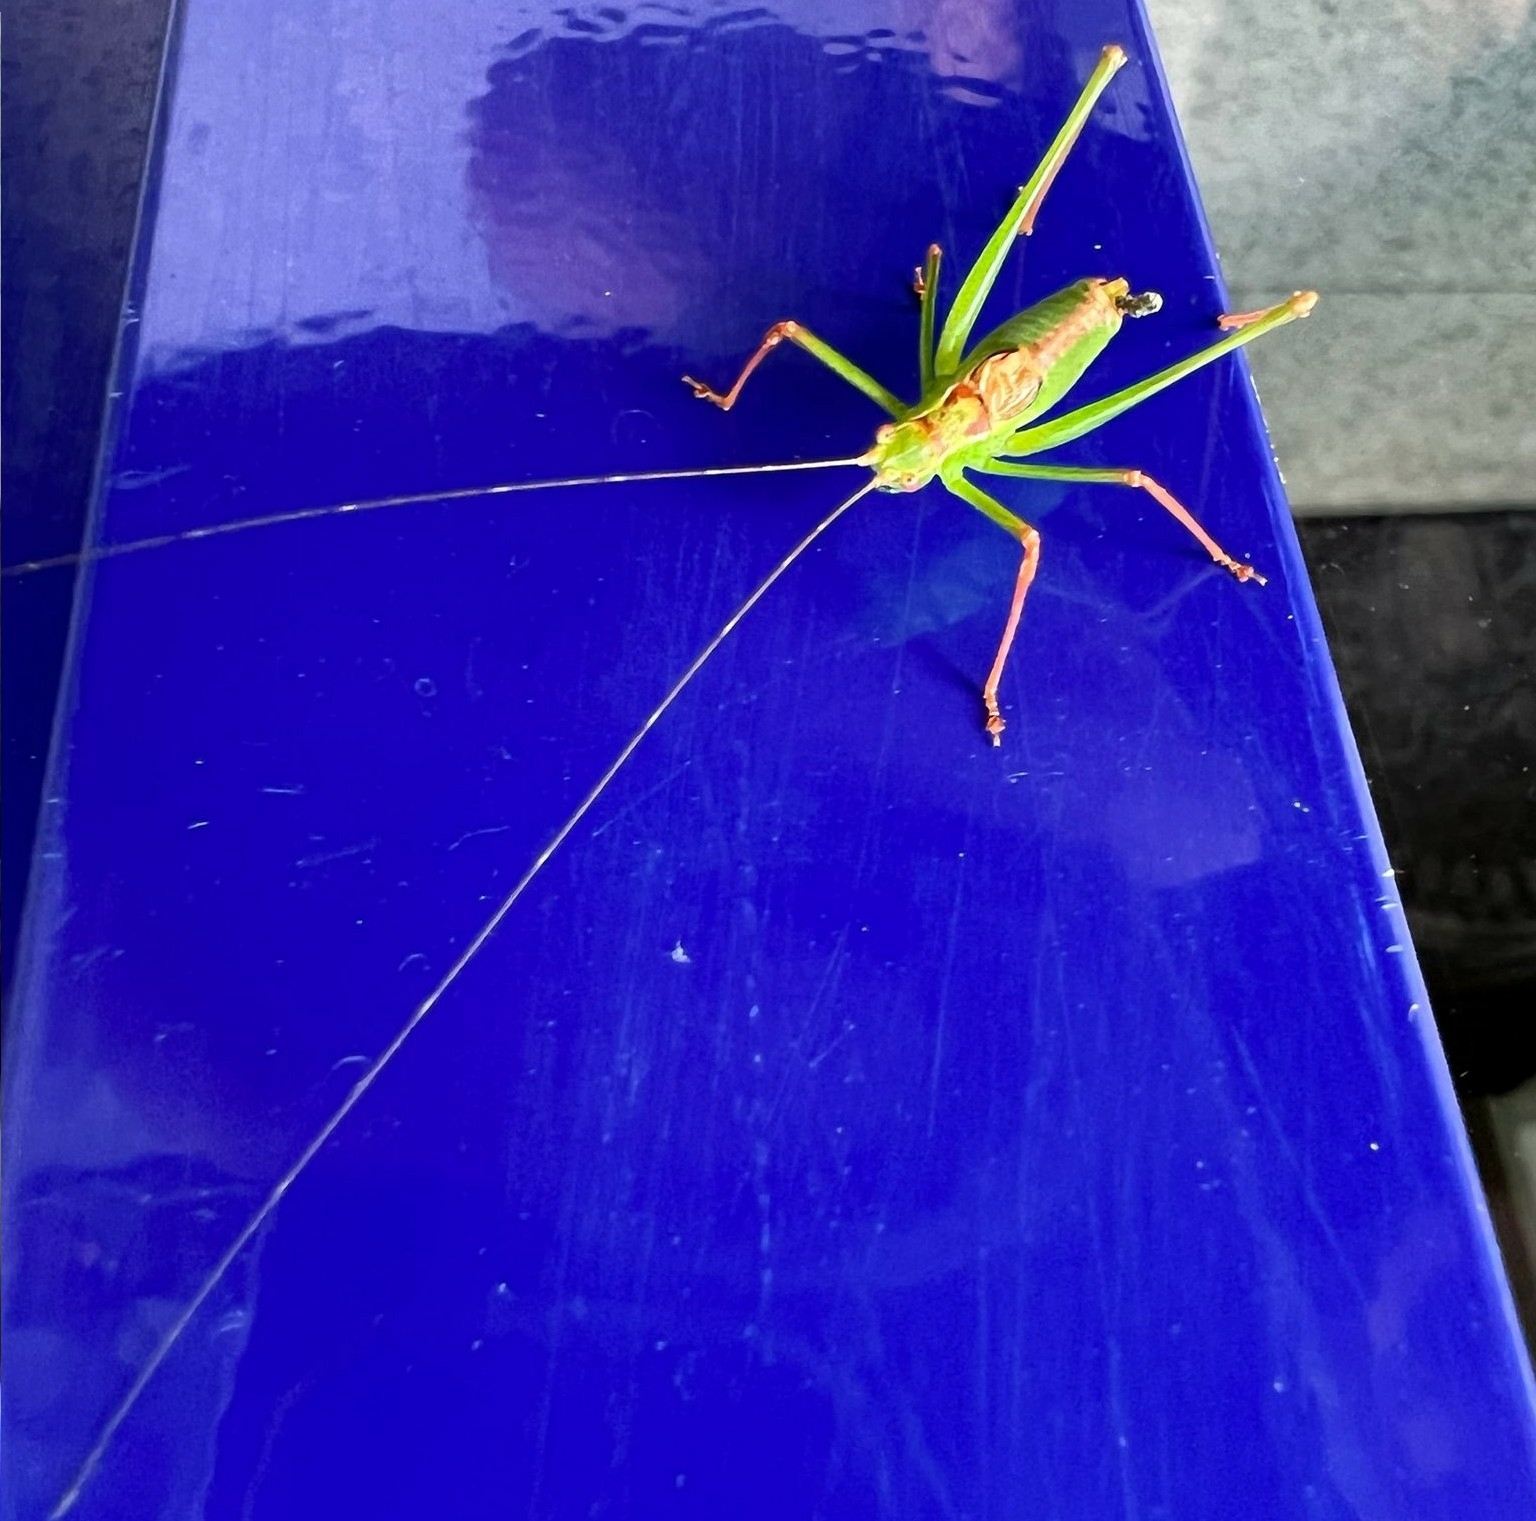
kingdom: Animalia
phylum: Arthropoda
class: Insecta
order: Orthoptera
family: Tettigoniidae
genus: Leptophyes
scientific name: Leptophyes punctatissima
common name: Speckled bush-cricket
